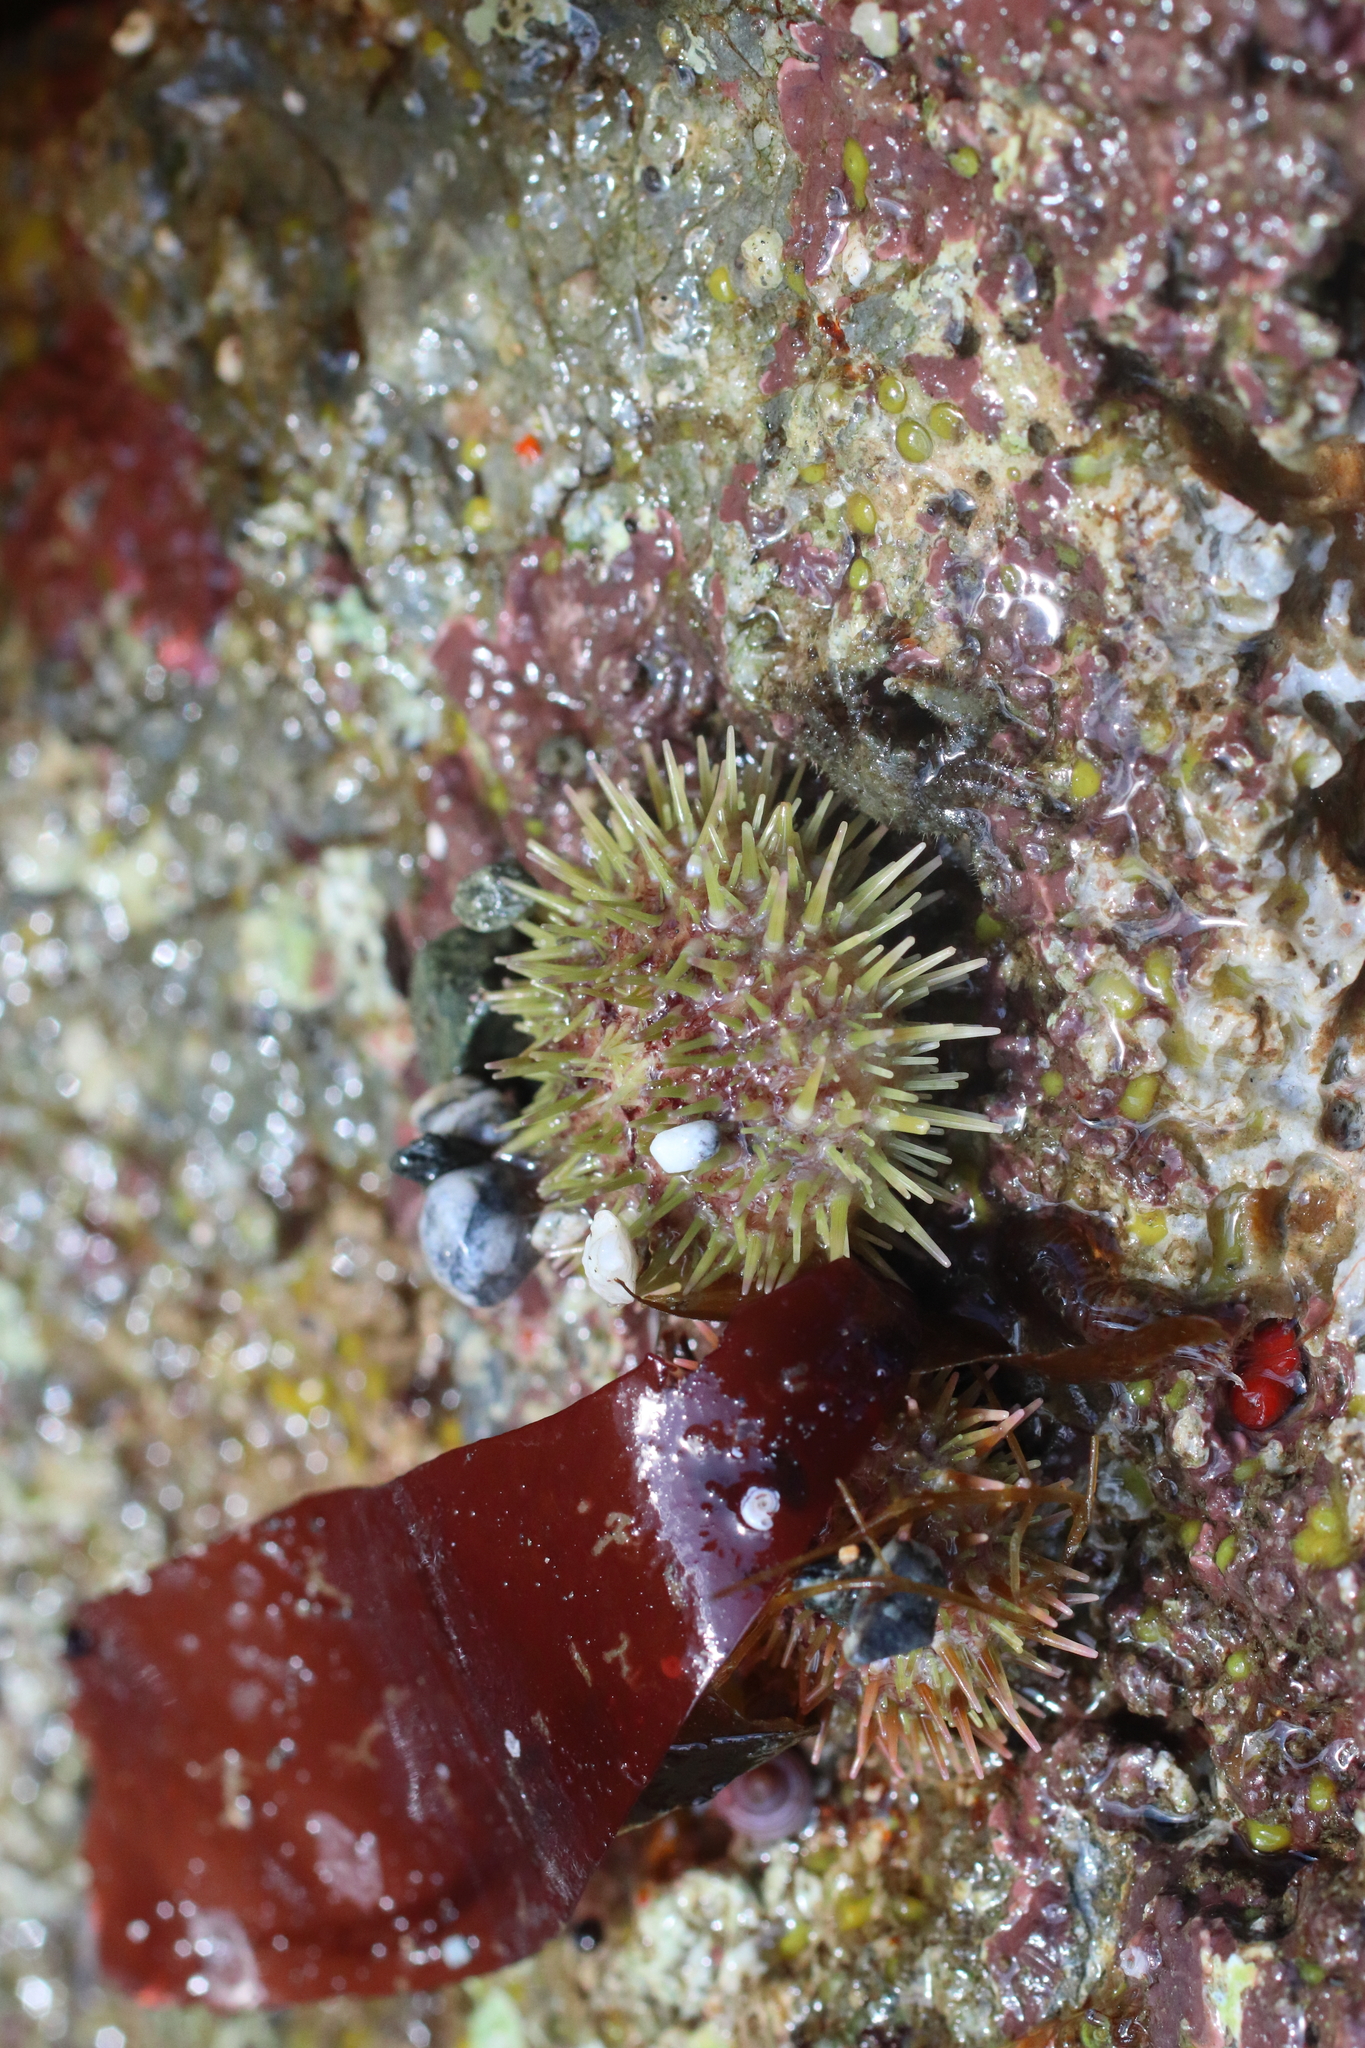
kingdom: Animalia
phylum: Echinodermata
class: Echinoidea
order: Camarodonta
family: Strongylocentrotidae
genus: Strongylocentrotus
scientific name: Strongylocentrotus droebachiensis
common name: Northern sea urchin
